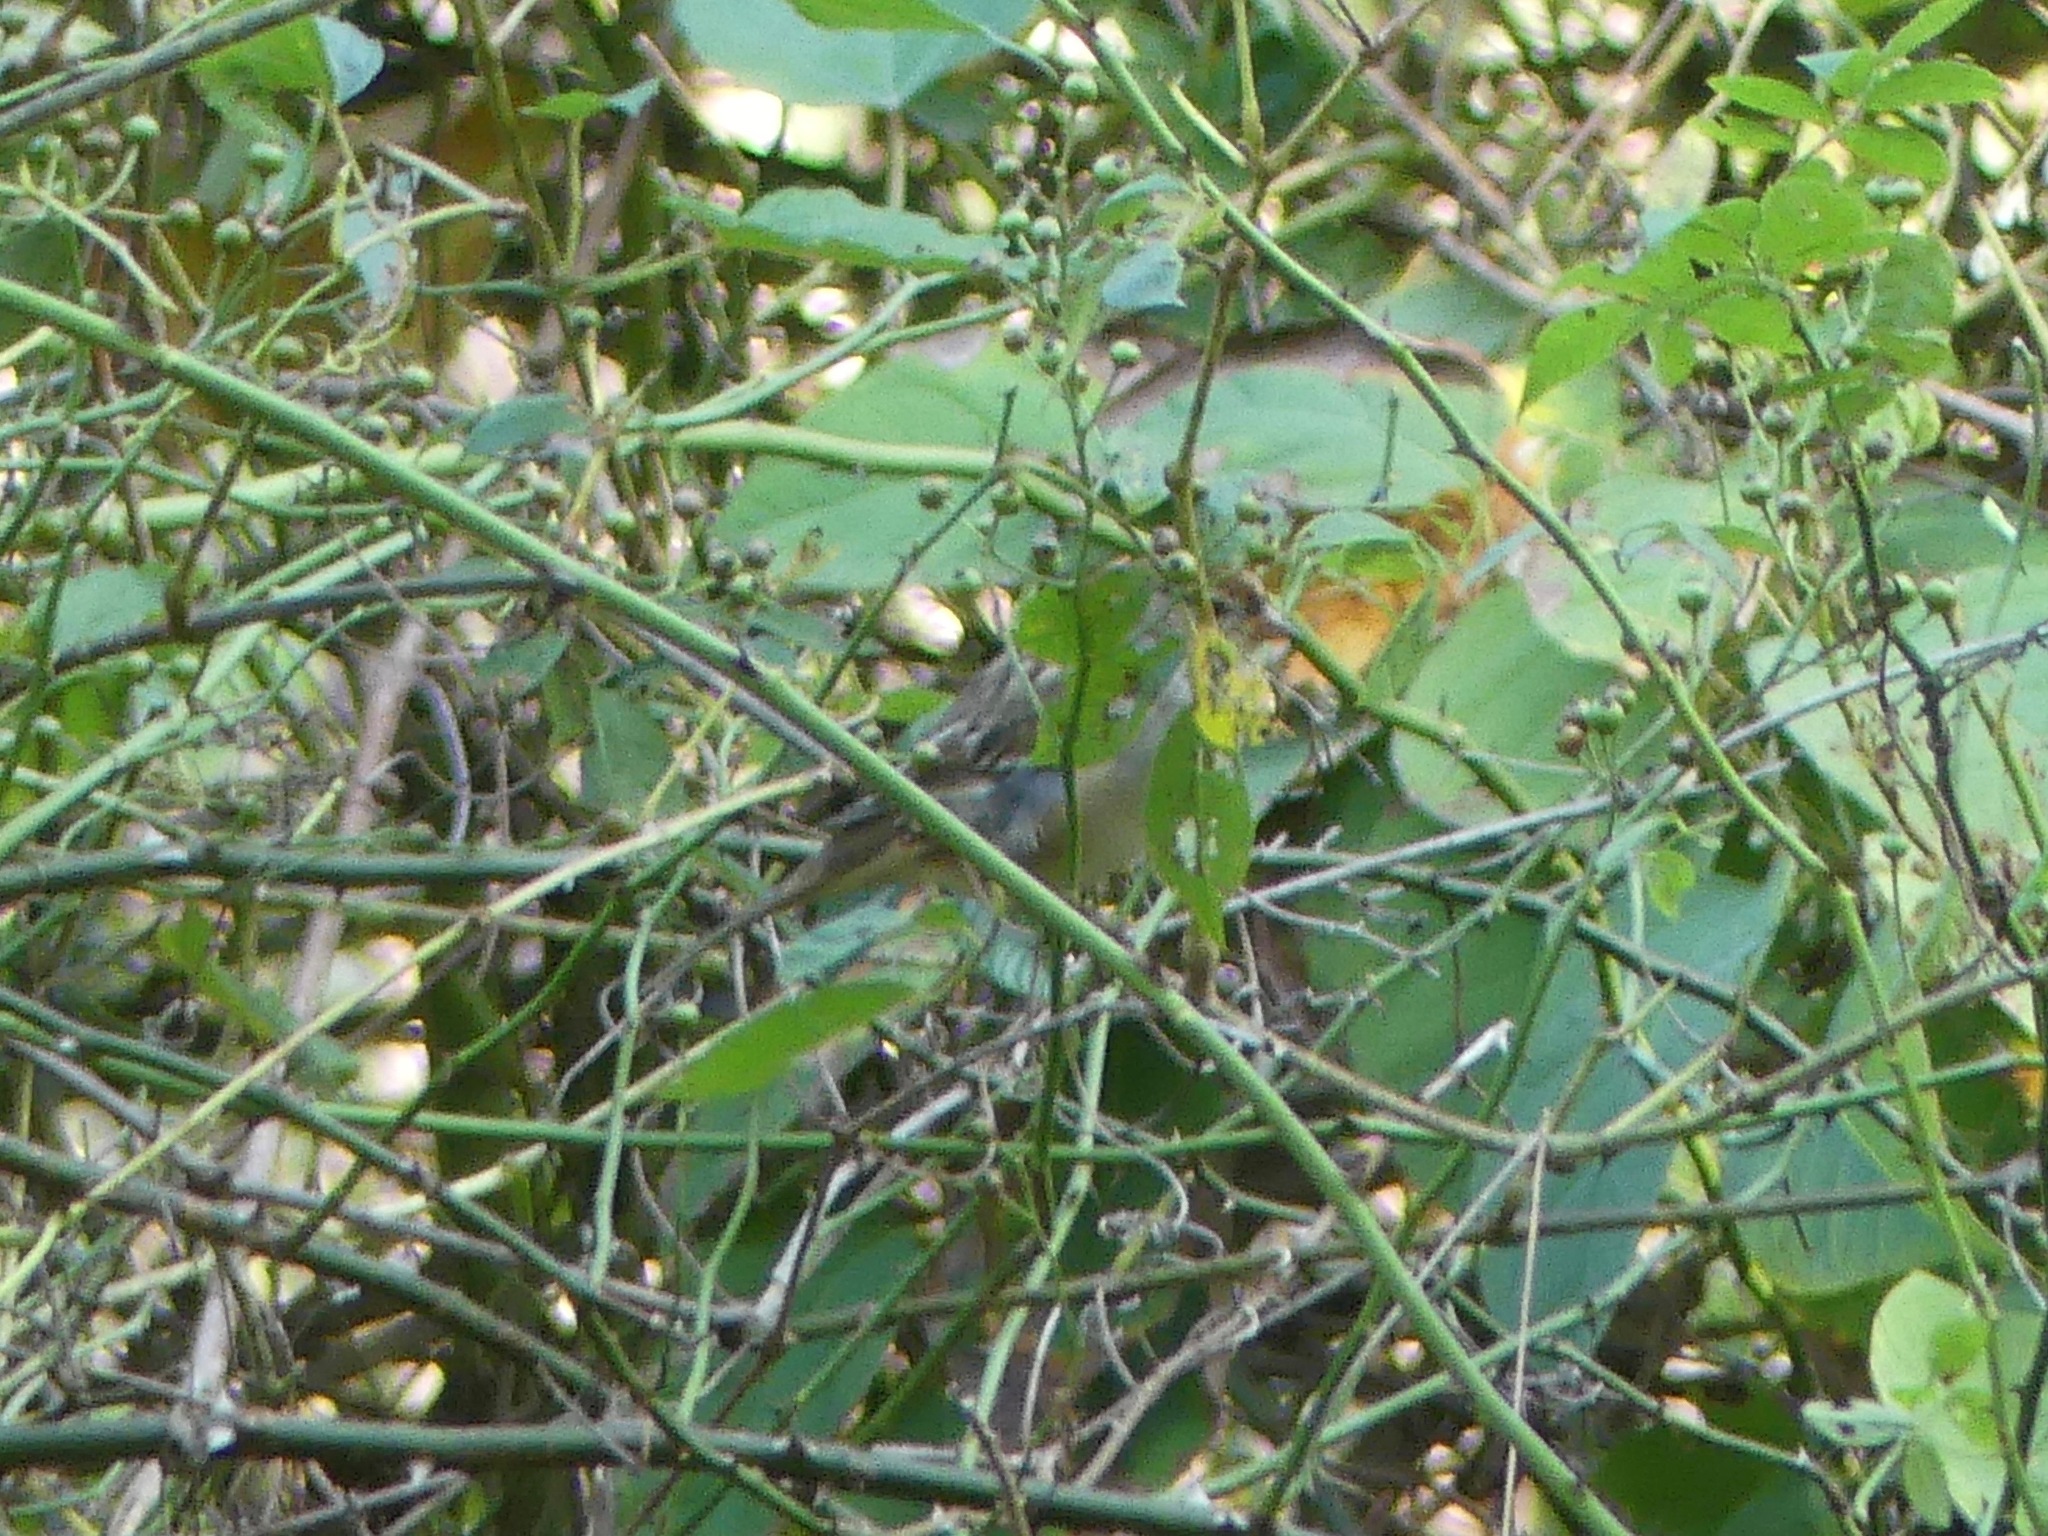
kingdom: Animalia
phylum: Chordata
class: Aves
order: Passeriformes
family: Passerellidae
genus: Zonotrichia
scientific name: Zonotrichia leucophrys
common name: White-crowned sparrow
